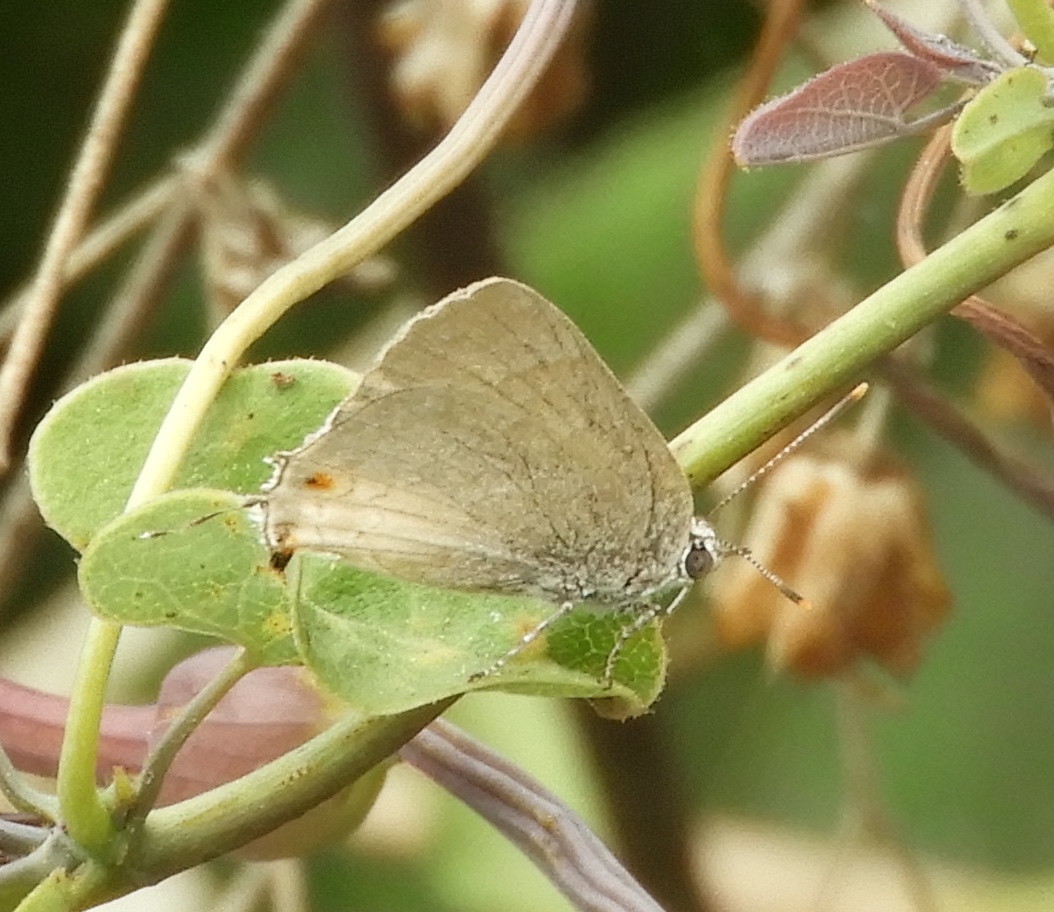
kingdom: Animalia
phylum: Arthropoda
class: Insecta
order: Lepidoptera
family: Lycaenidae
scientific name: Lycaenidae
